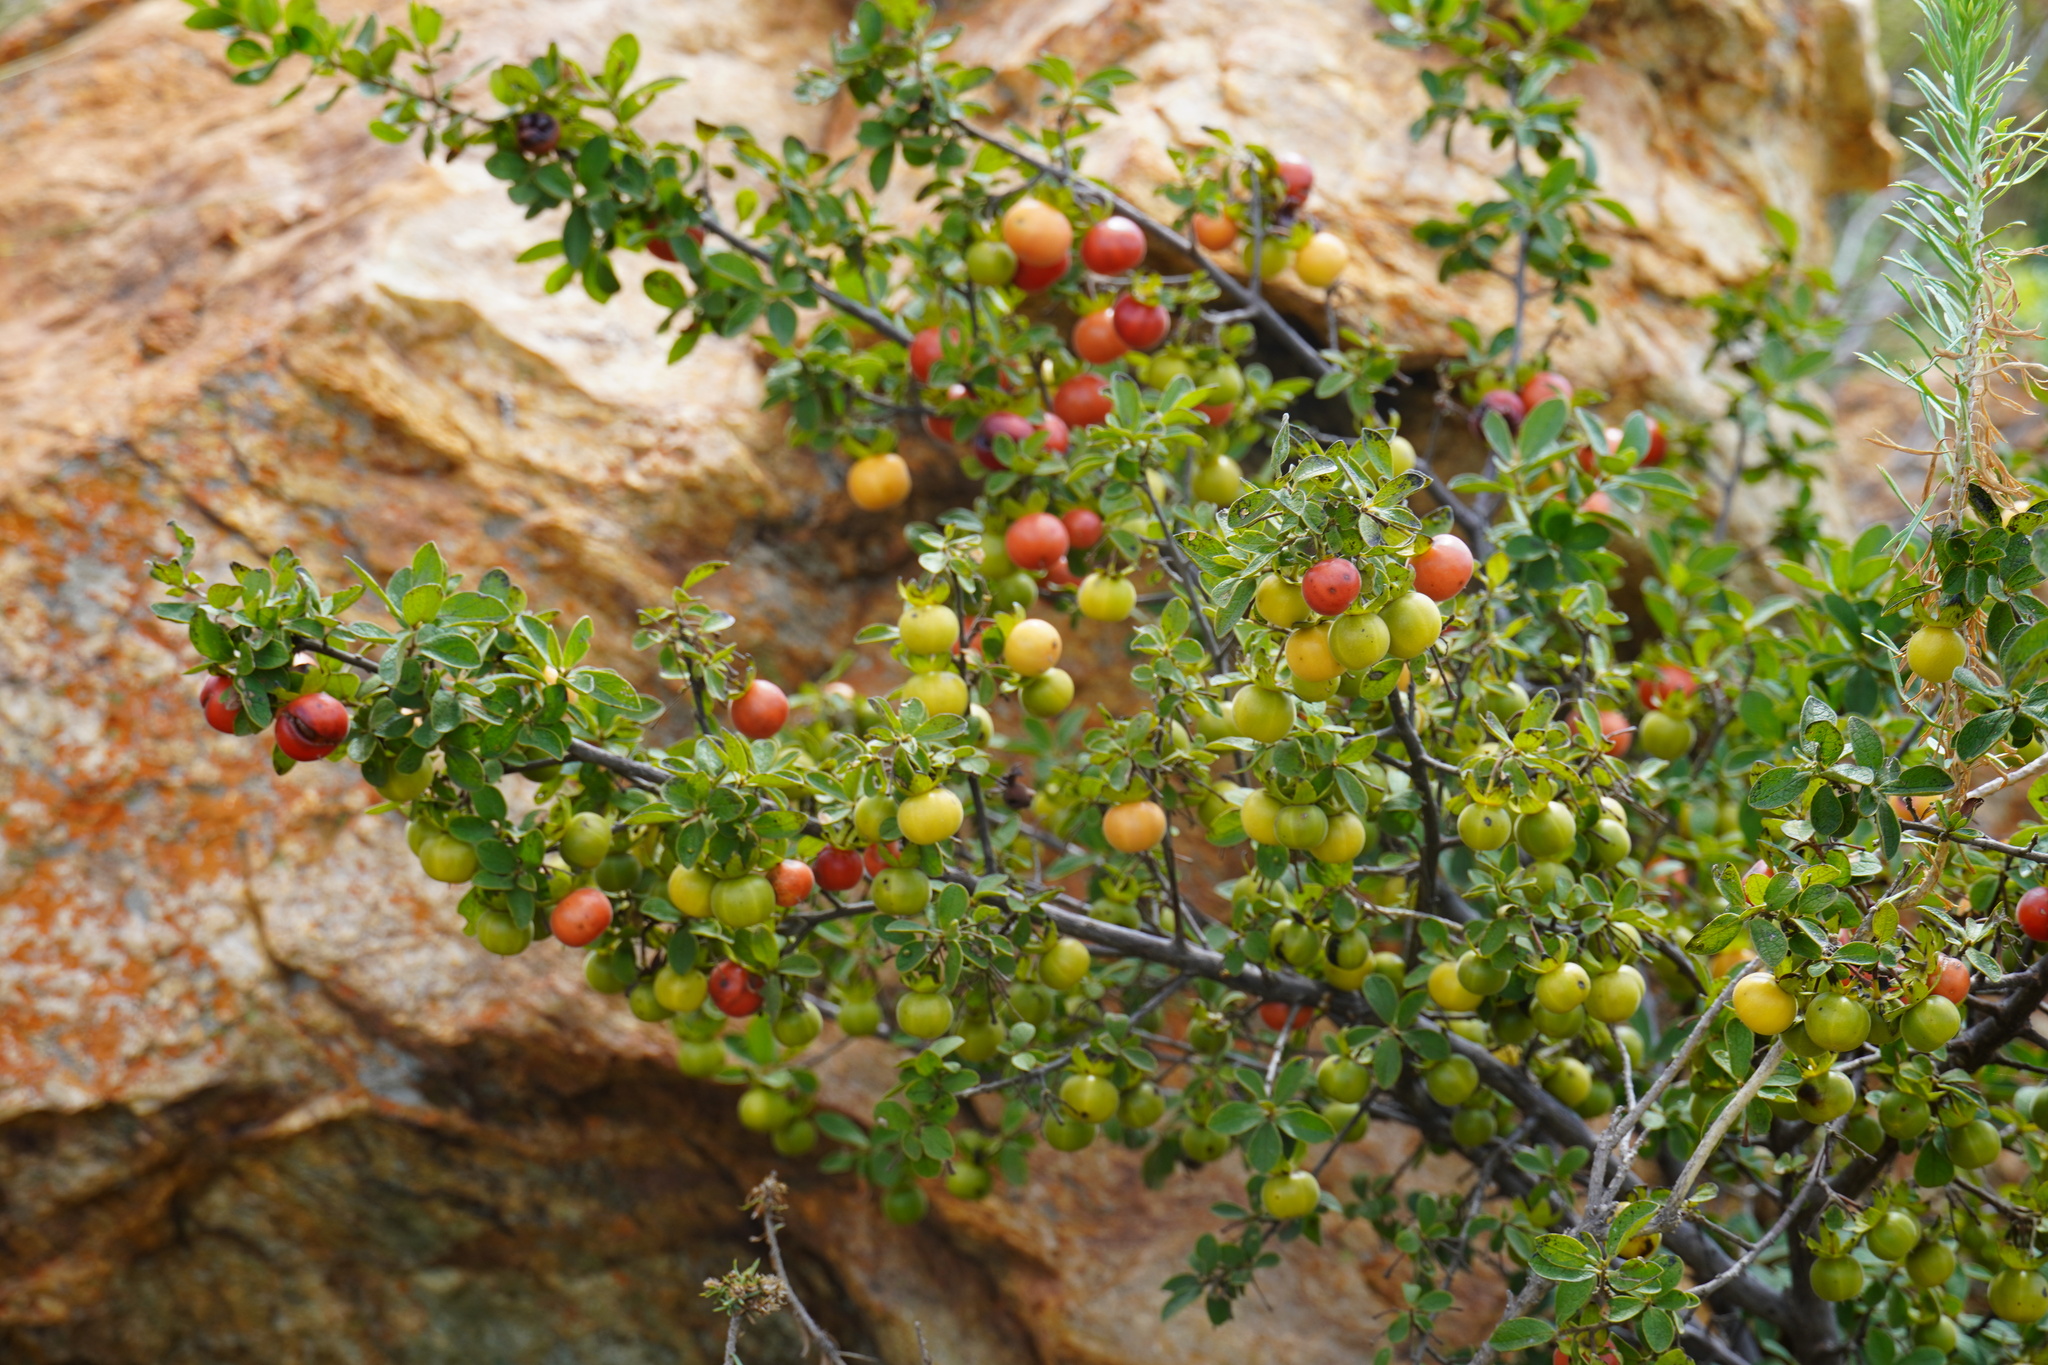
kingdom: Plantae
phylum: Tracheophyta
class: Magnoliopsida
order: Ericales
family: Ebenaceae
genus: Diospyros
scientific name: Diospyros lycioides
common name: Red star apple
